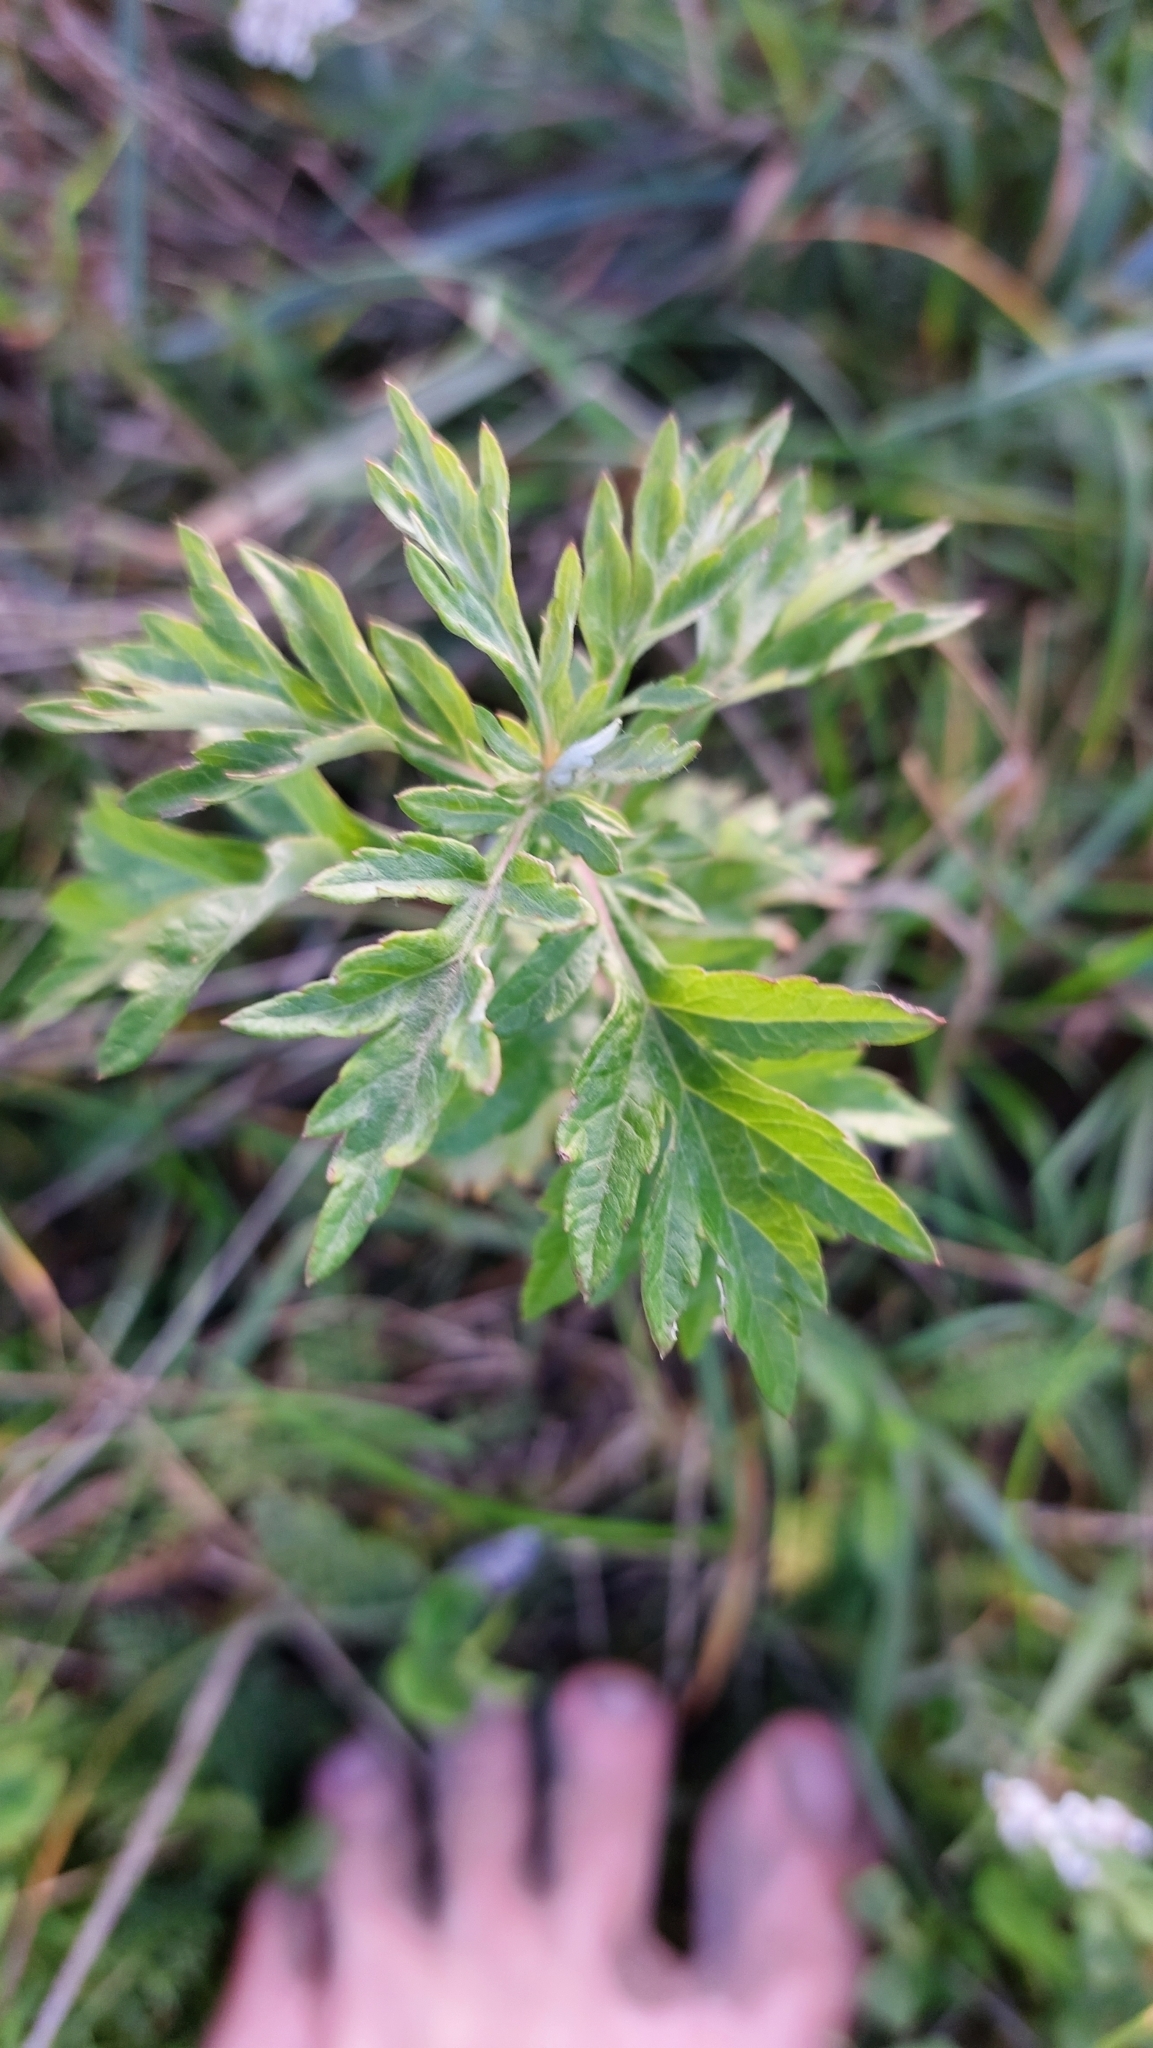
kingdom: Plantae
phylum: Tracheophyta
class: Magnoliopsida
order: Asterales
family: Asteraceae
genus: Artemisia
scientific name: Artemisia vulgaris
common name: Mugwort
